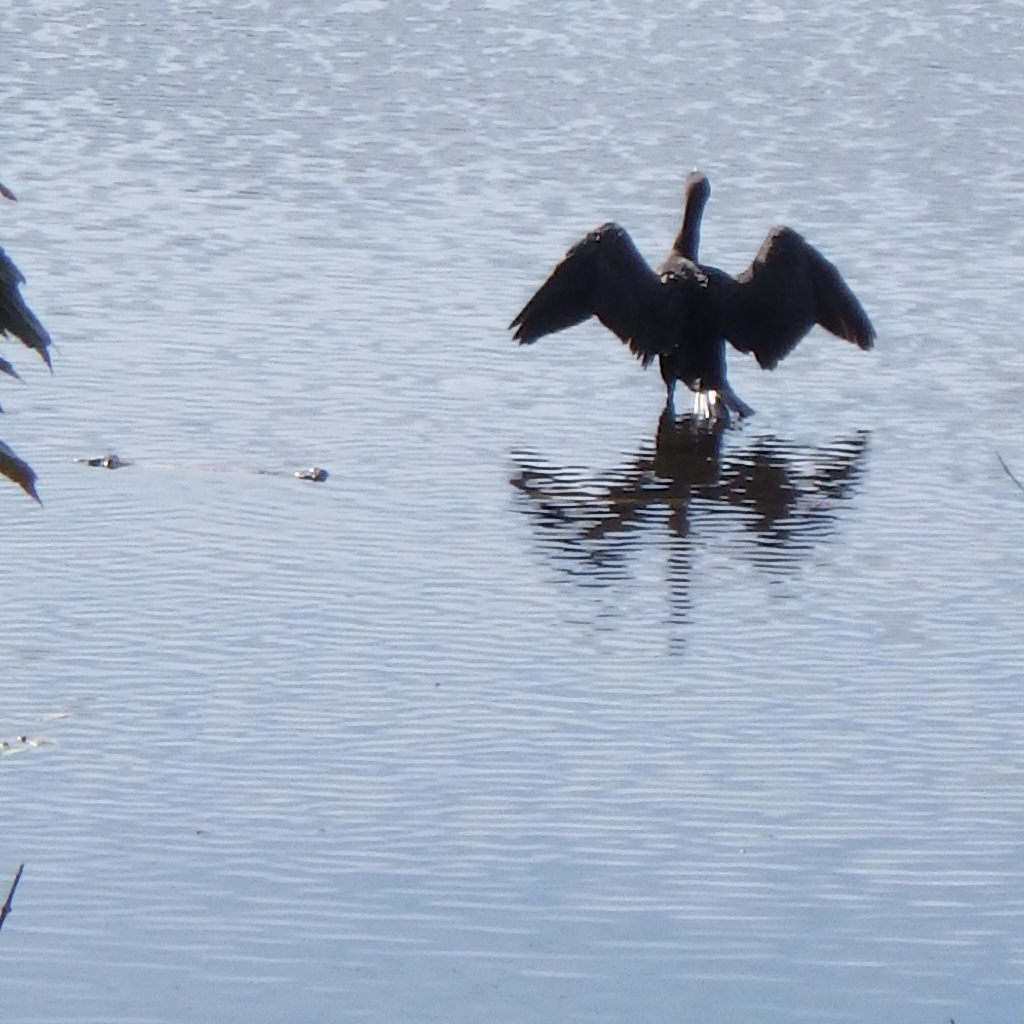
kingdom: Animalia
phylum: Chordata
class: Aves
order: Suliformes
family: Phalacrocoracidae
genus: Phalacrocorax
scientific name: Phalacrocorax auritus
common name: Double-crested cormorant
